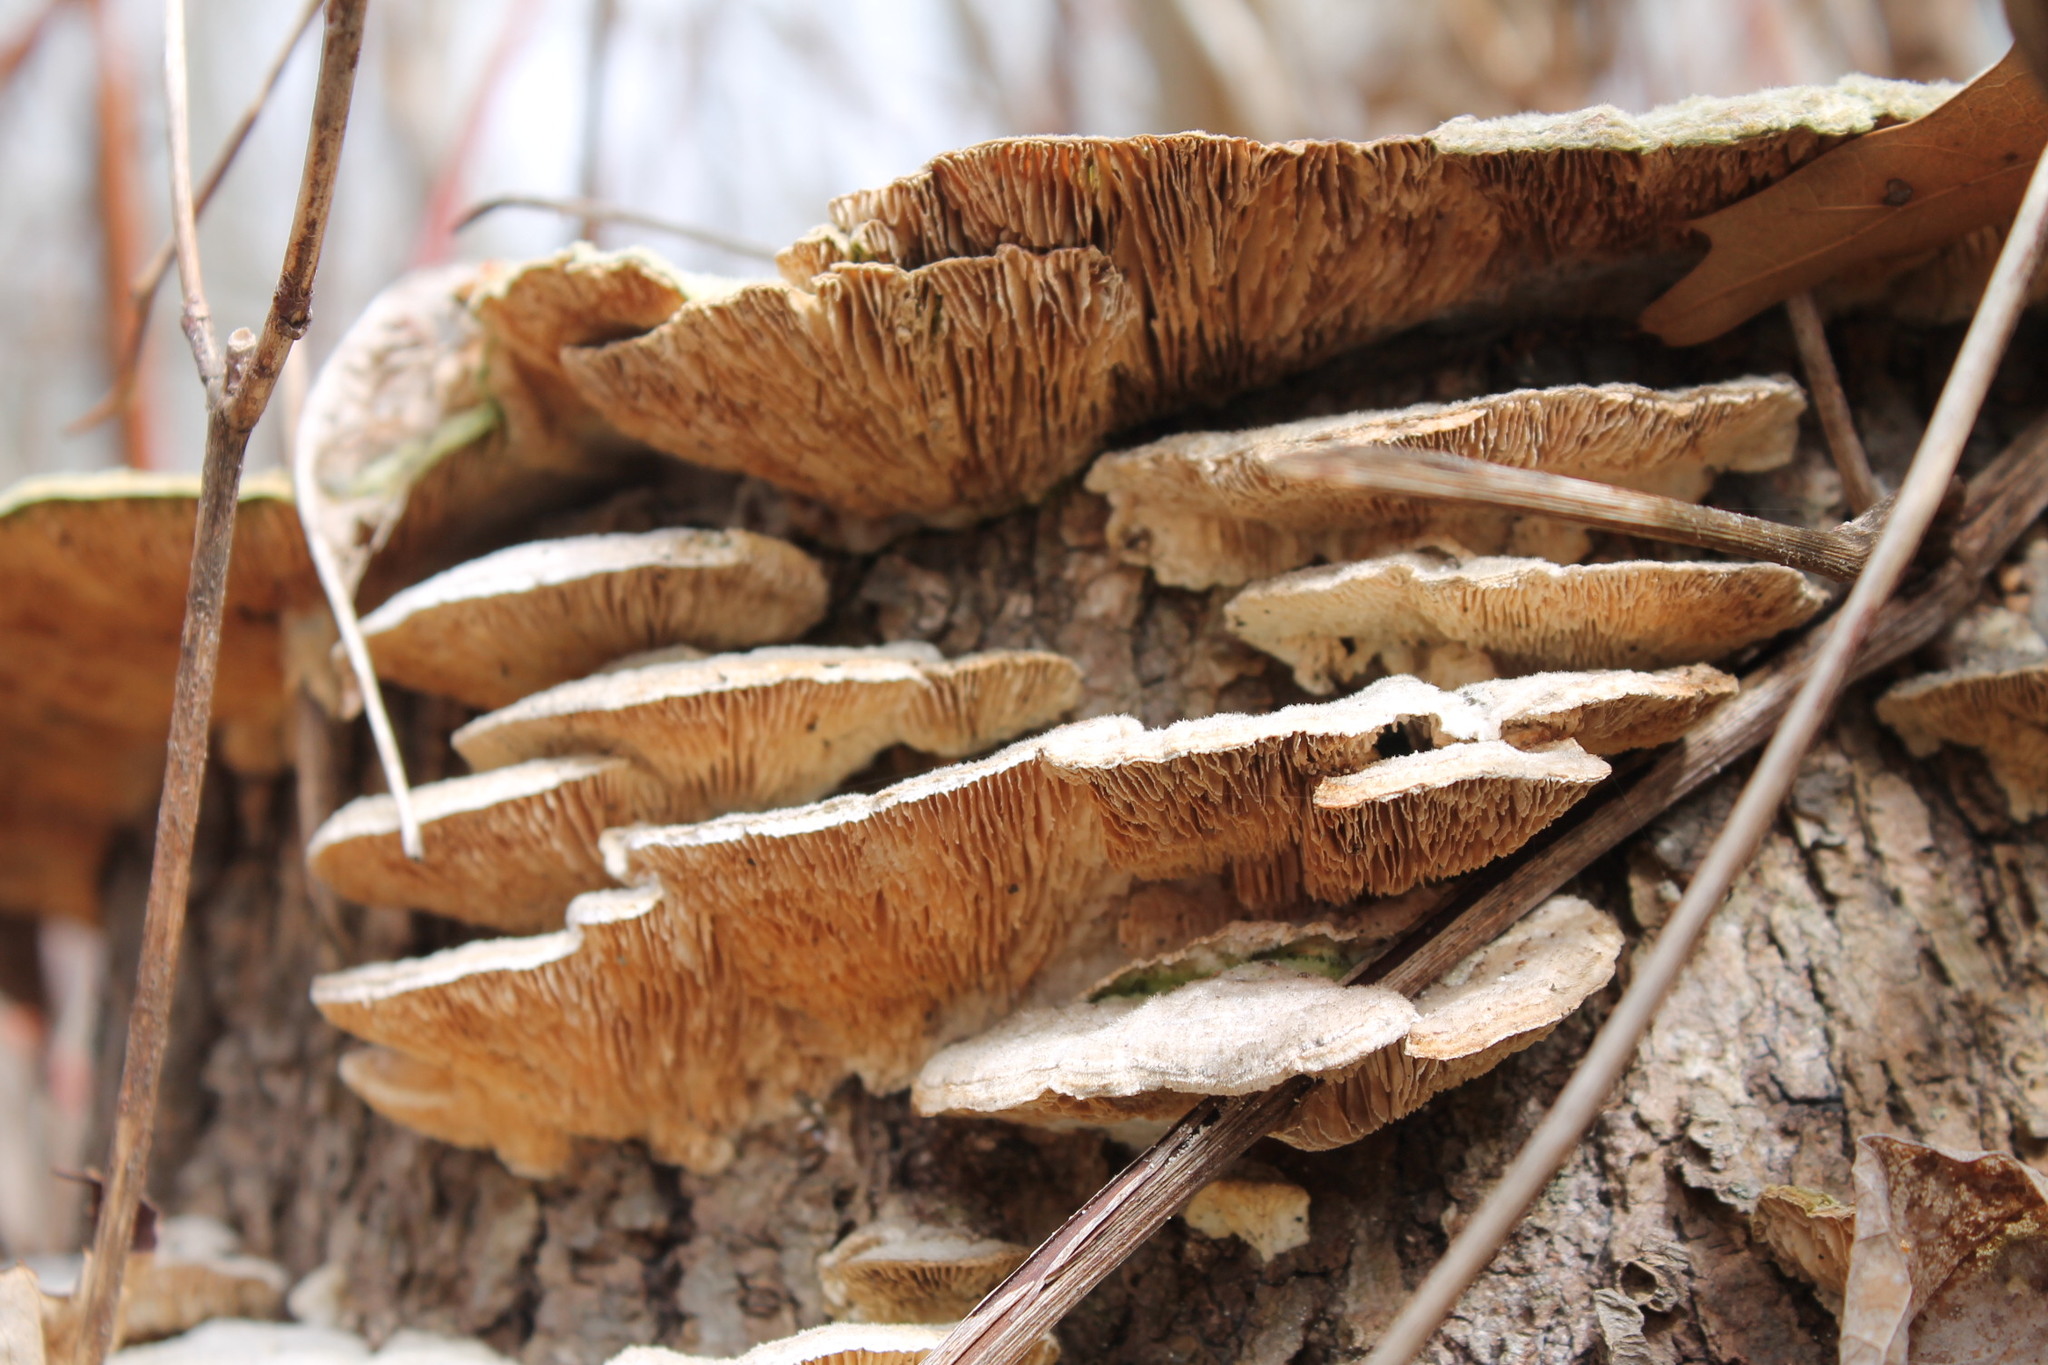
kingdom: Fungi
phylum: Basidiomycota
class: Agaricomycetes
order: Polyporales
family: Polyporaceae
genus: Lenzites
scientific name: Lenzites betulinus
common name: Birch mazegill
